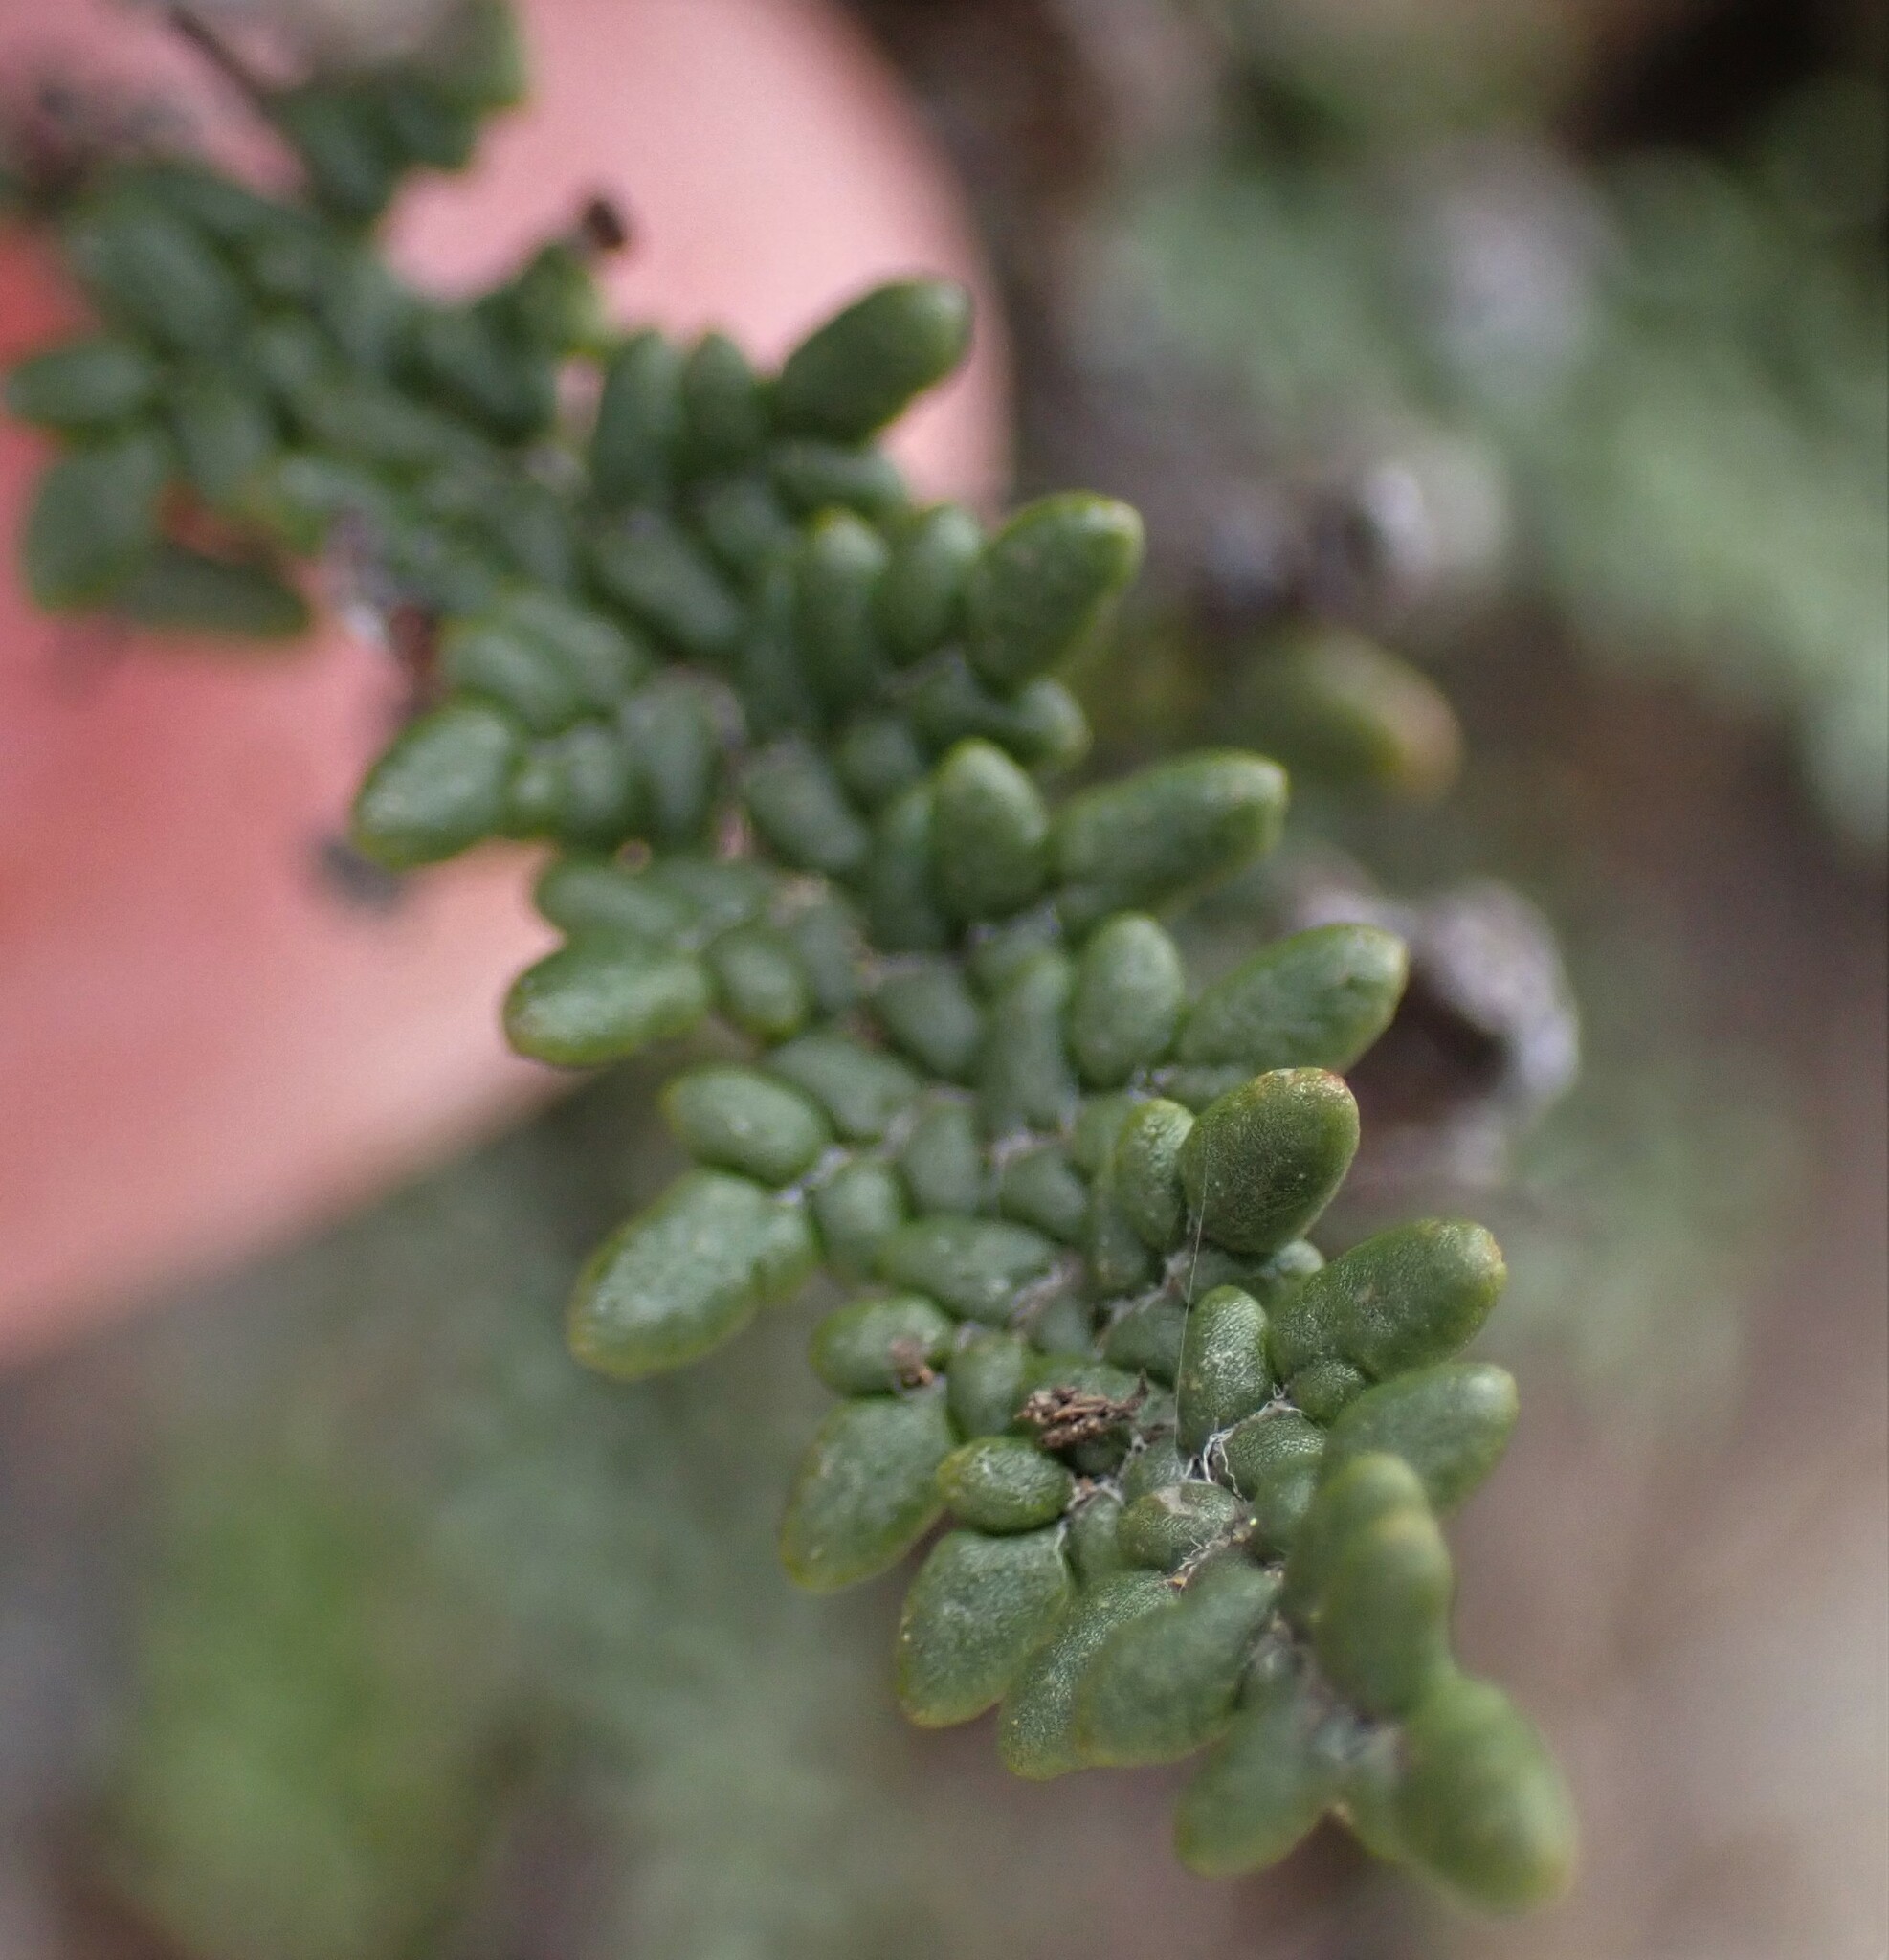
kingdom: Plantae
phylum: Tracheophyta
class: Polypodiopsida
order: Polypodiales
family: Pteridaceae
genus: Myriopteris
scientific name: Myriopteris gracillima
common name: Lace fern
